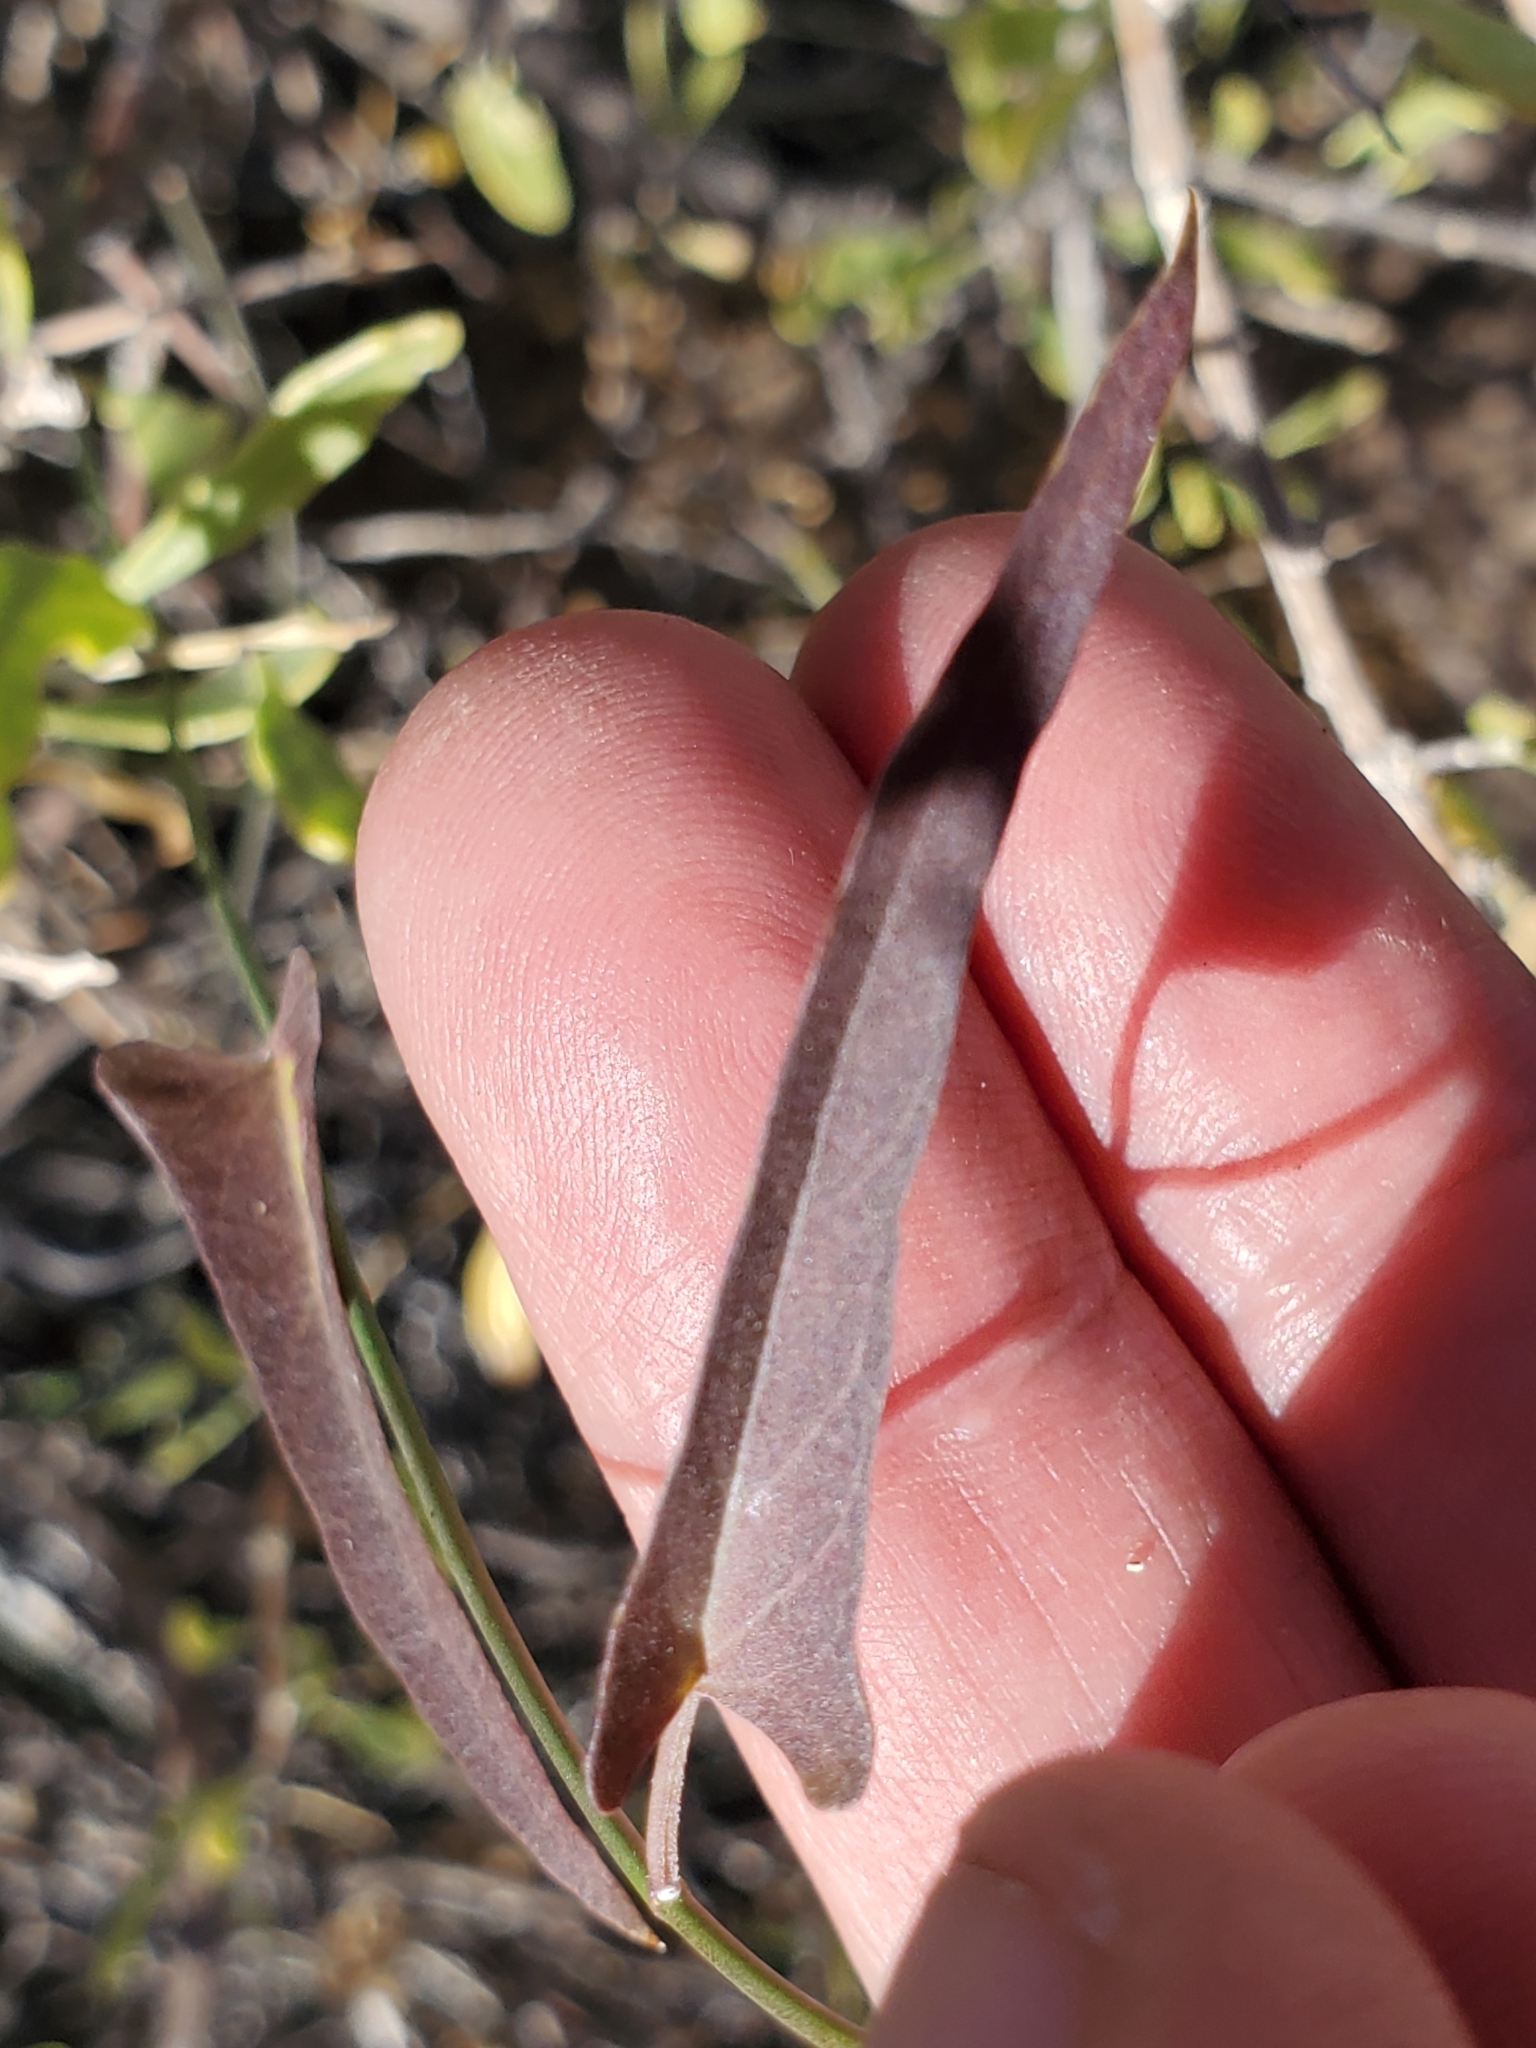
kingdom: Plantae
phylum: Tracheophyta
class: Magnoliopsida
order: Gentianales
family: Apocynaceae
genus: Funastrum
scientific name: Funastrum heterophyllum
